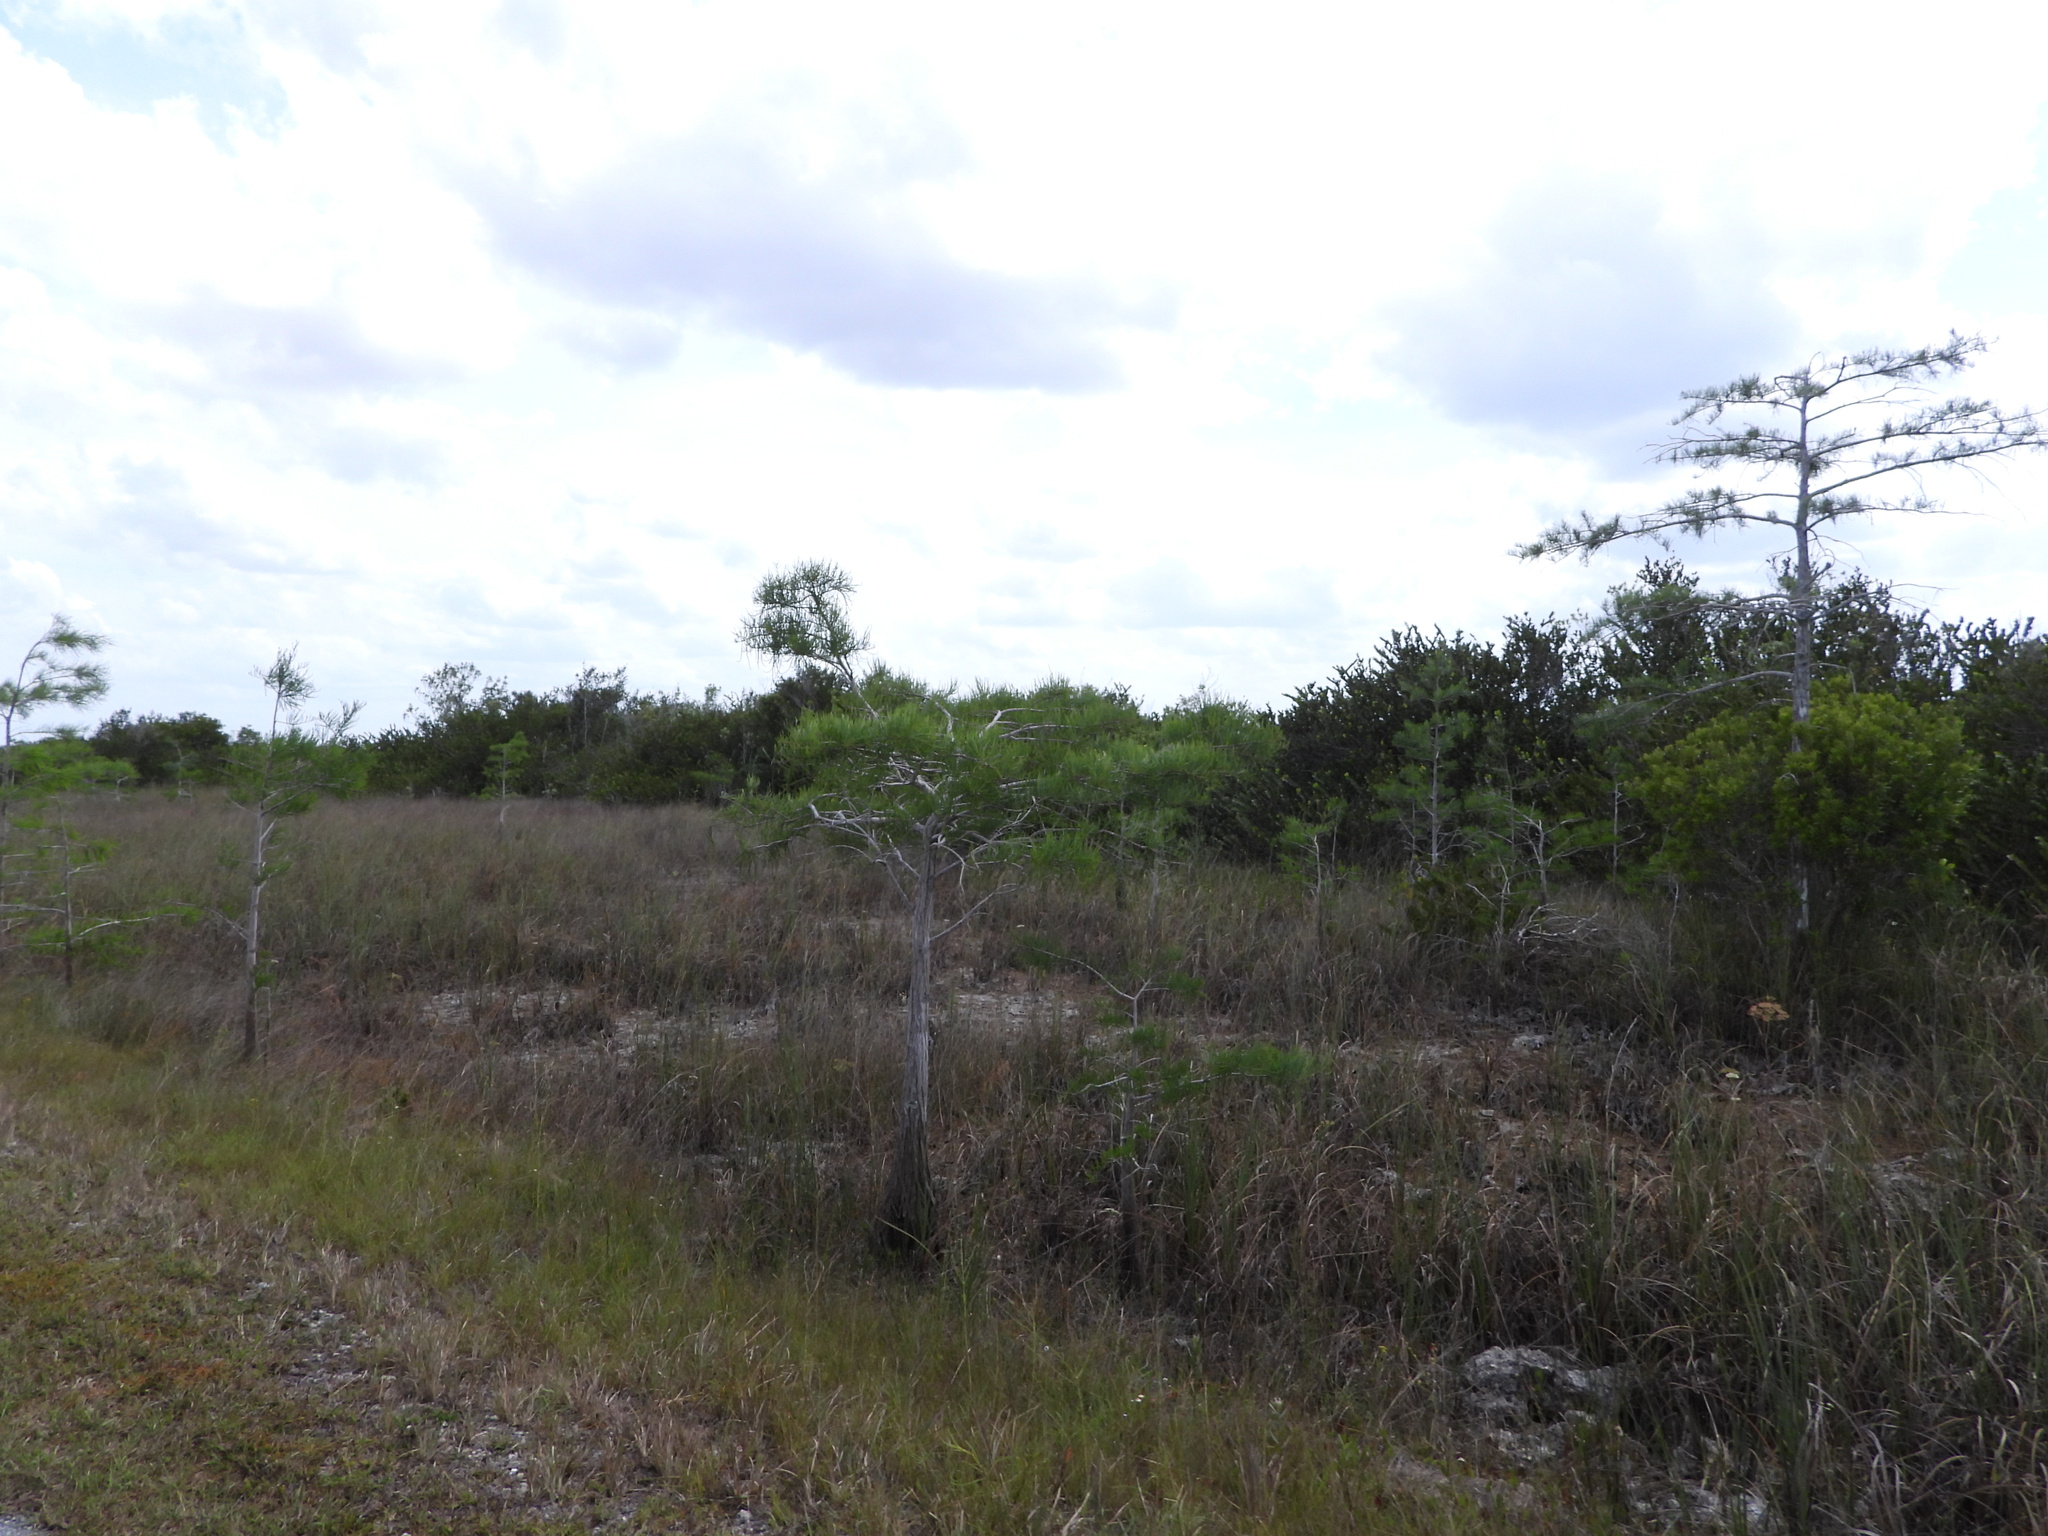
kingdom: Plantae
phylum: Tracheophyta
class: Pinopsida
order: Pinales
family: Cupressaceae
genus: Taxodium
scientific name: Taxodium distichum
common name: Bald cypress
